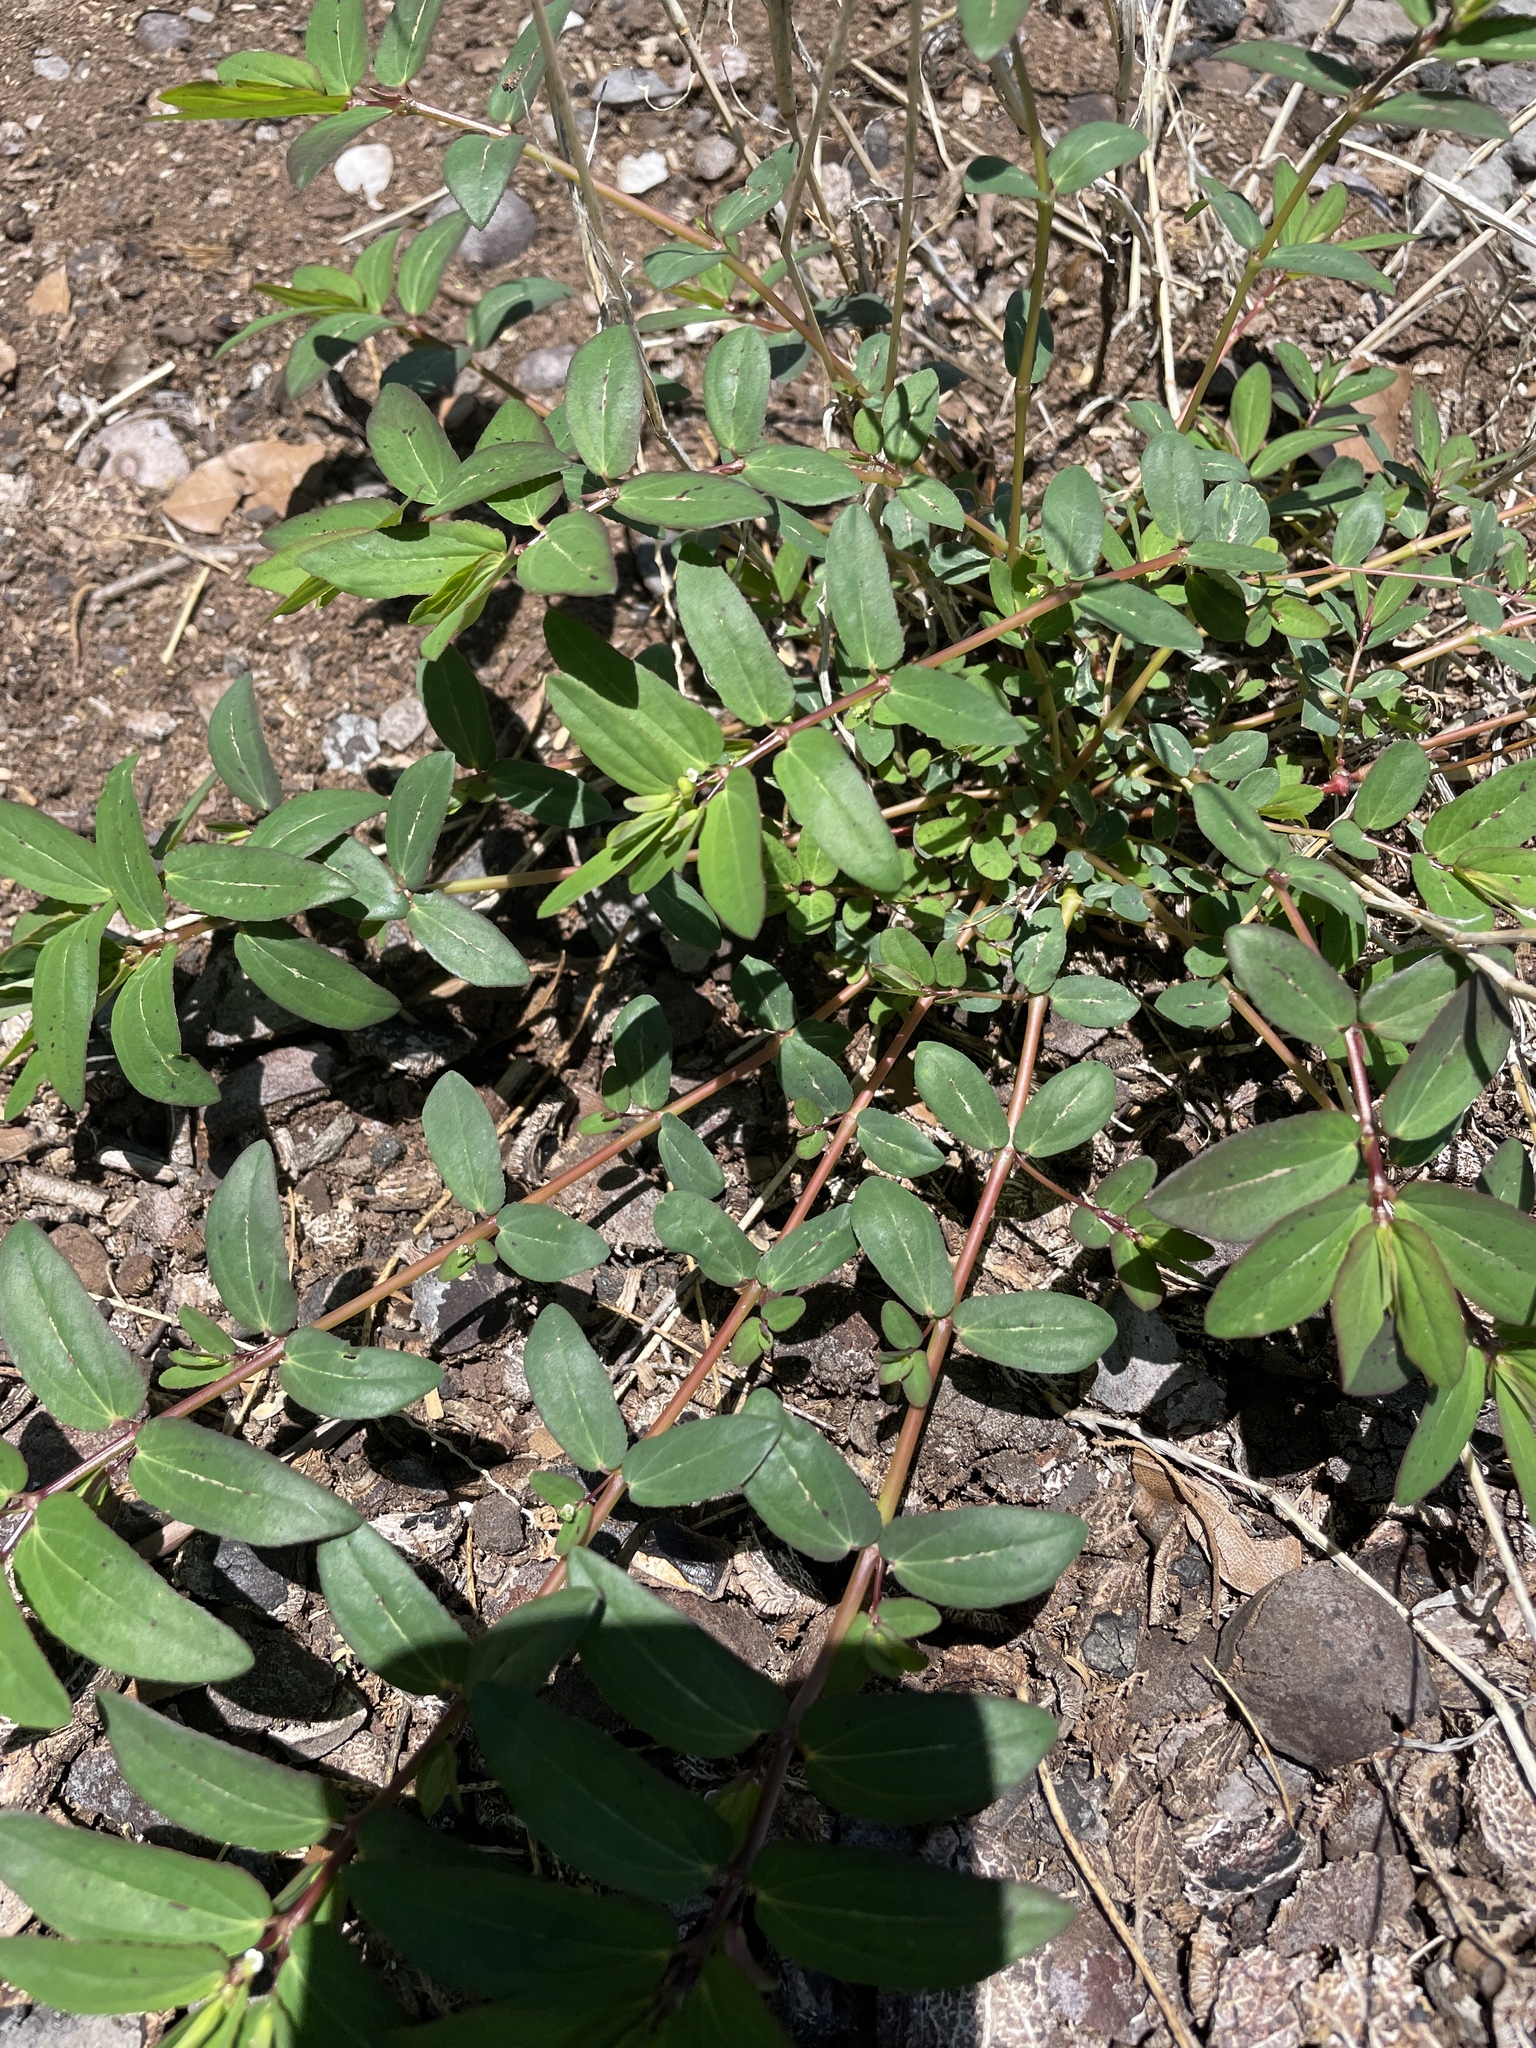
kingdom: Plantae
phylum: Tracheophyta
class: Magnoliopsida
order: Malpighiales
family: Euphorbiaceae
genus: Euphorbia
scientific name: Euphorbia hyssopifolia
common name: Hyssopleaf sandmat
